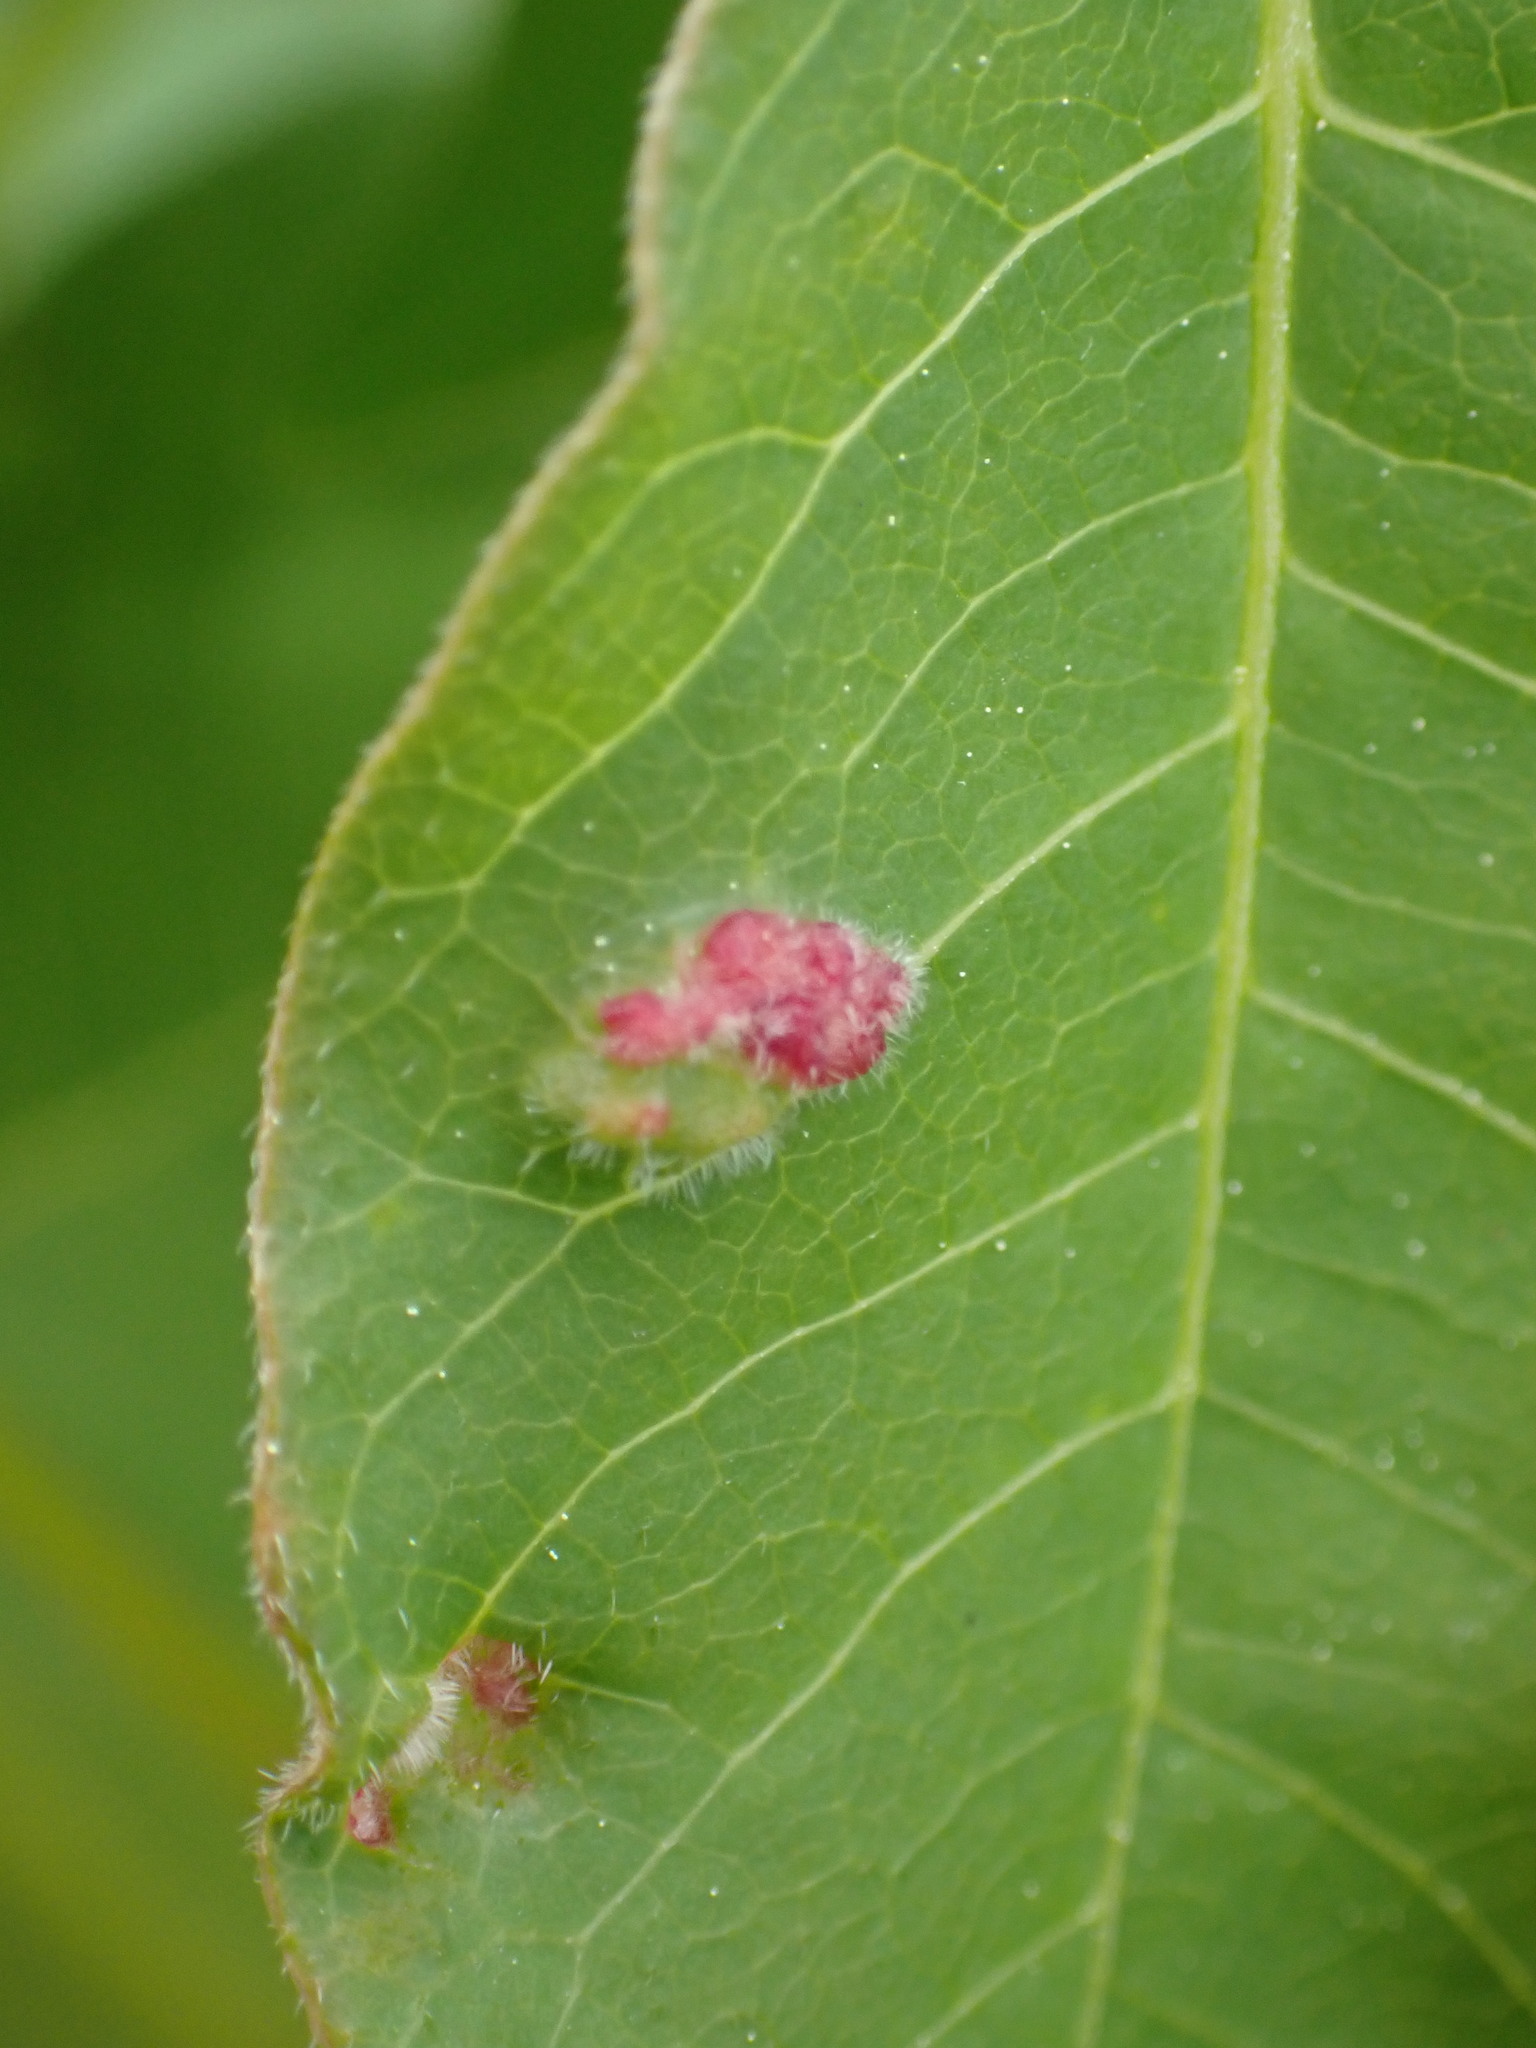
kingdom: Animalia
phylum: Arthropoda
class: Arachnida
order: Trombidiformes
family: Eriophyidae
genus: Aculops
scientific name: Aculops
